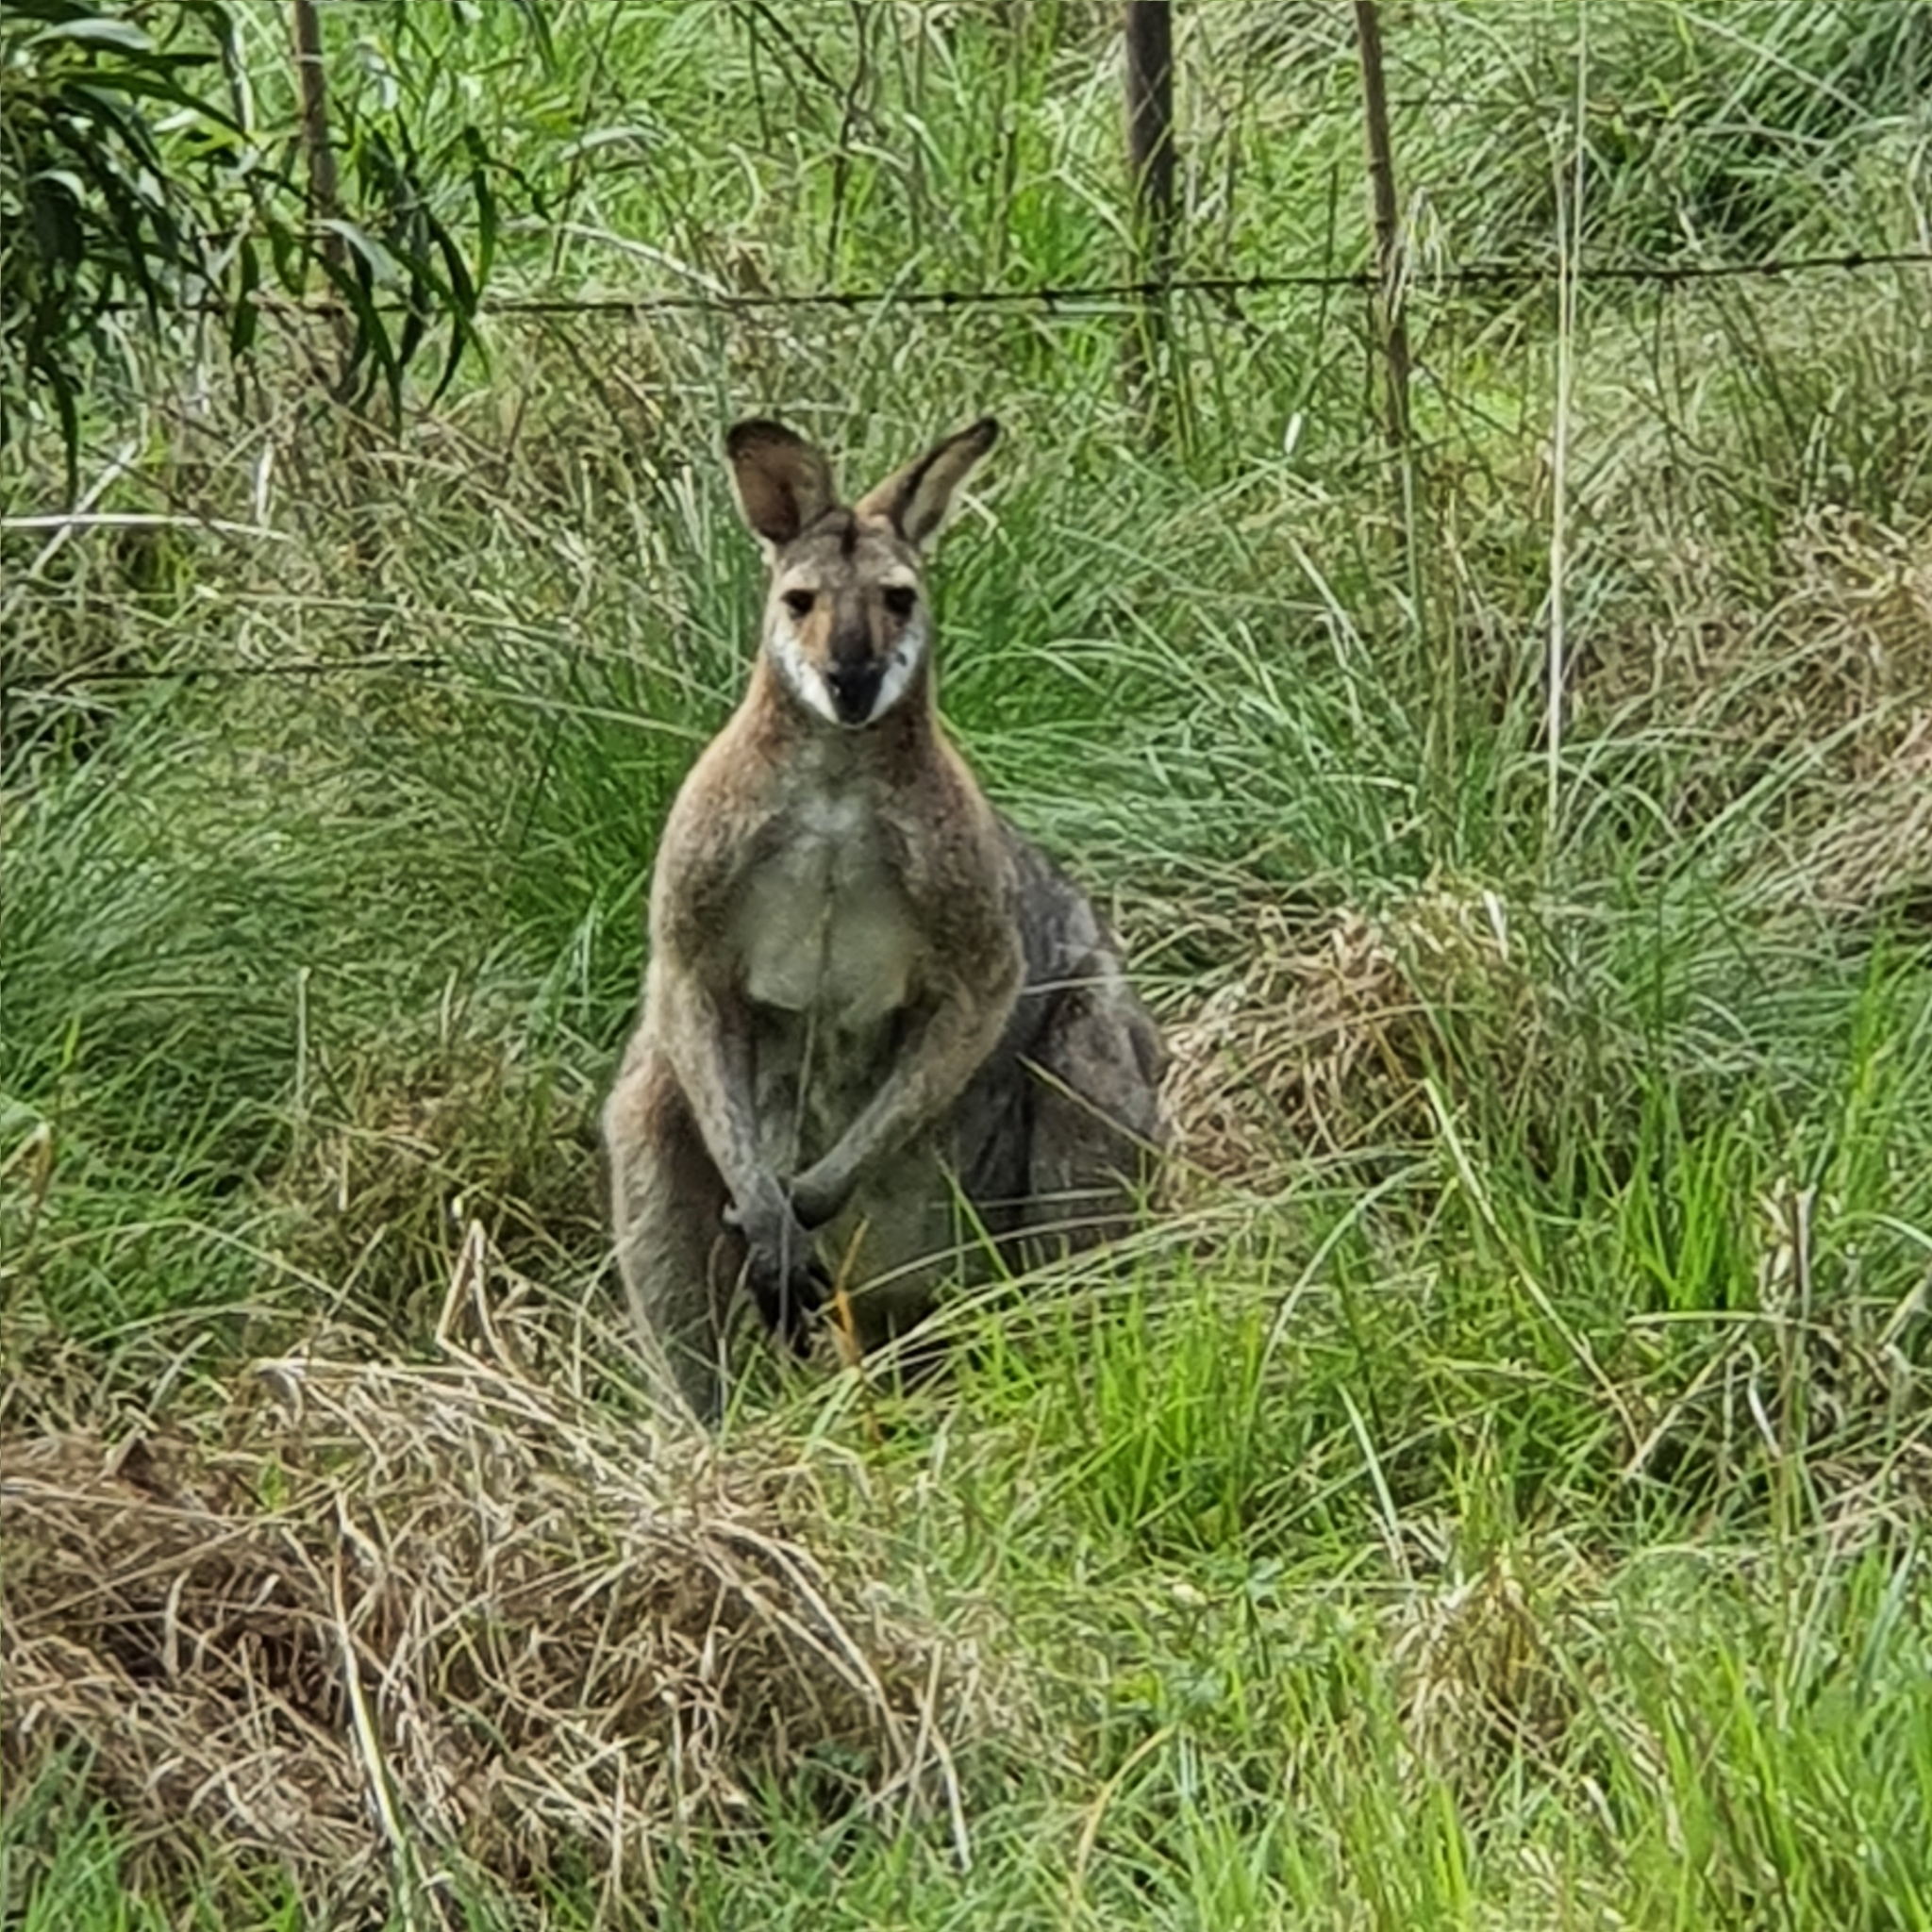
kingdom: Animalia
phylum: Chordata
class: Mammalia
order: Diprotodontia
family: Macropodidae
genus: Notamacropus
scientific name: Notamacropus rufogriseus
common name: Red-necked wallaby
